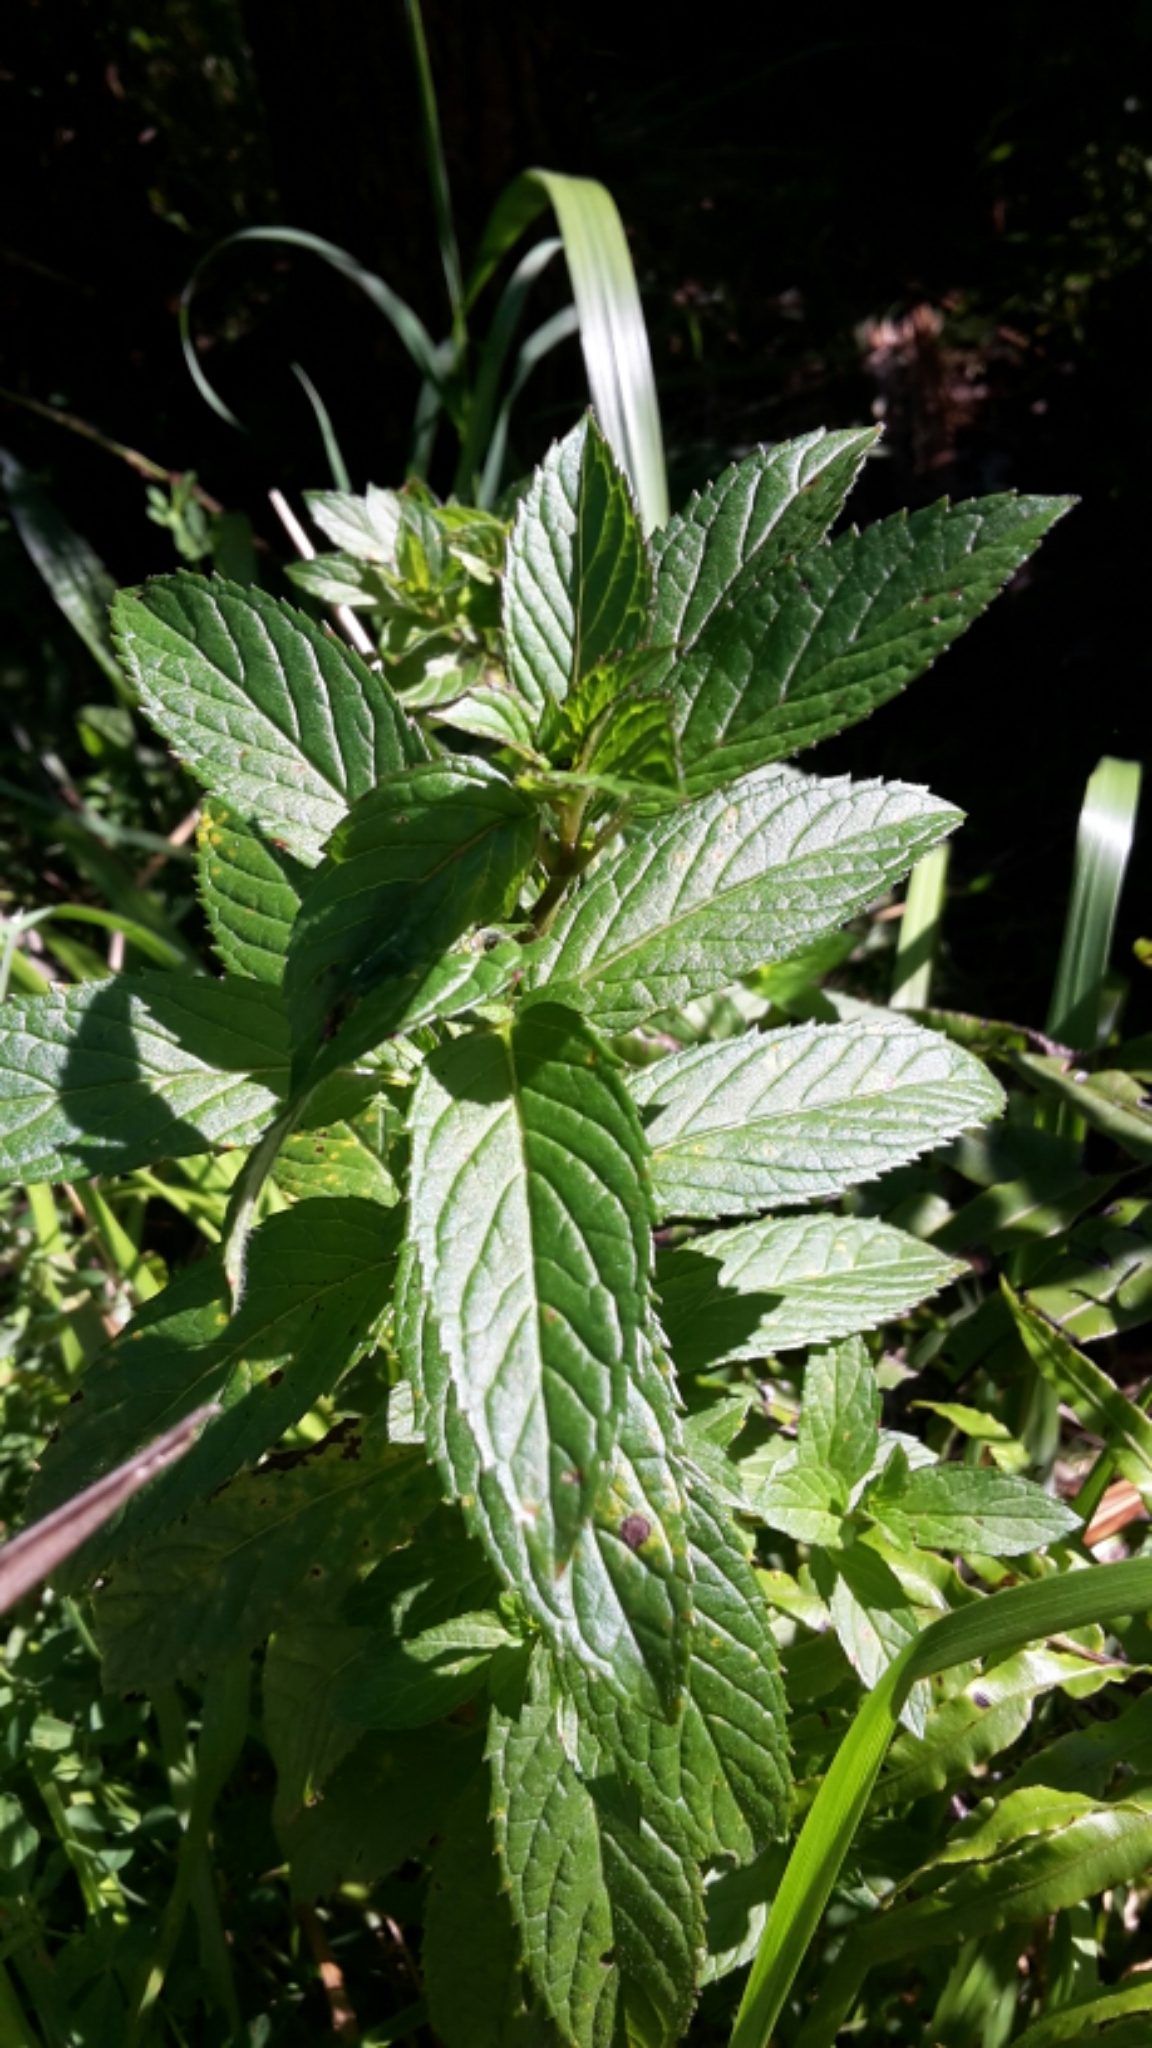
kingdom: Plantae
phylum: Tracheophyta
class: Magnoliopsida
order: Lamiales
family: Lamiaceae
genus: Mentha
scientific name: Mentha spicata
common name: Spearmint
